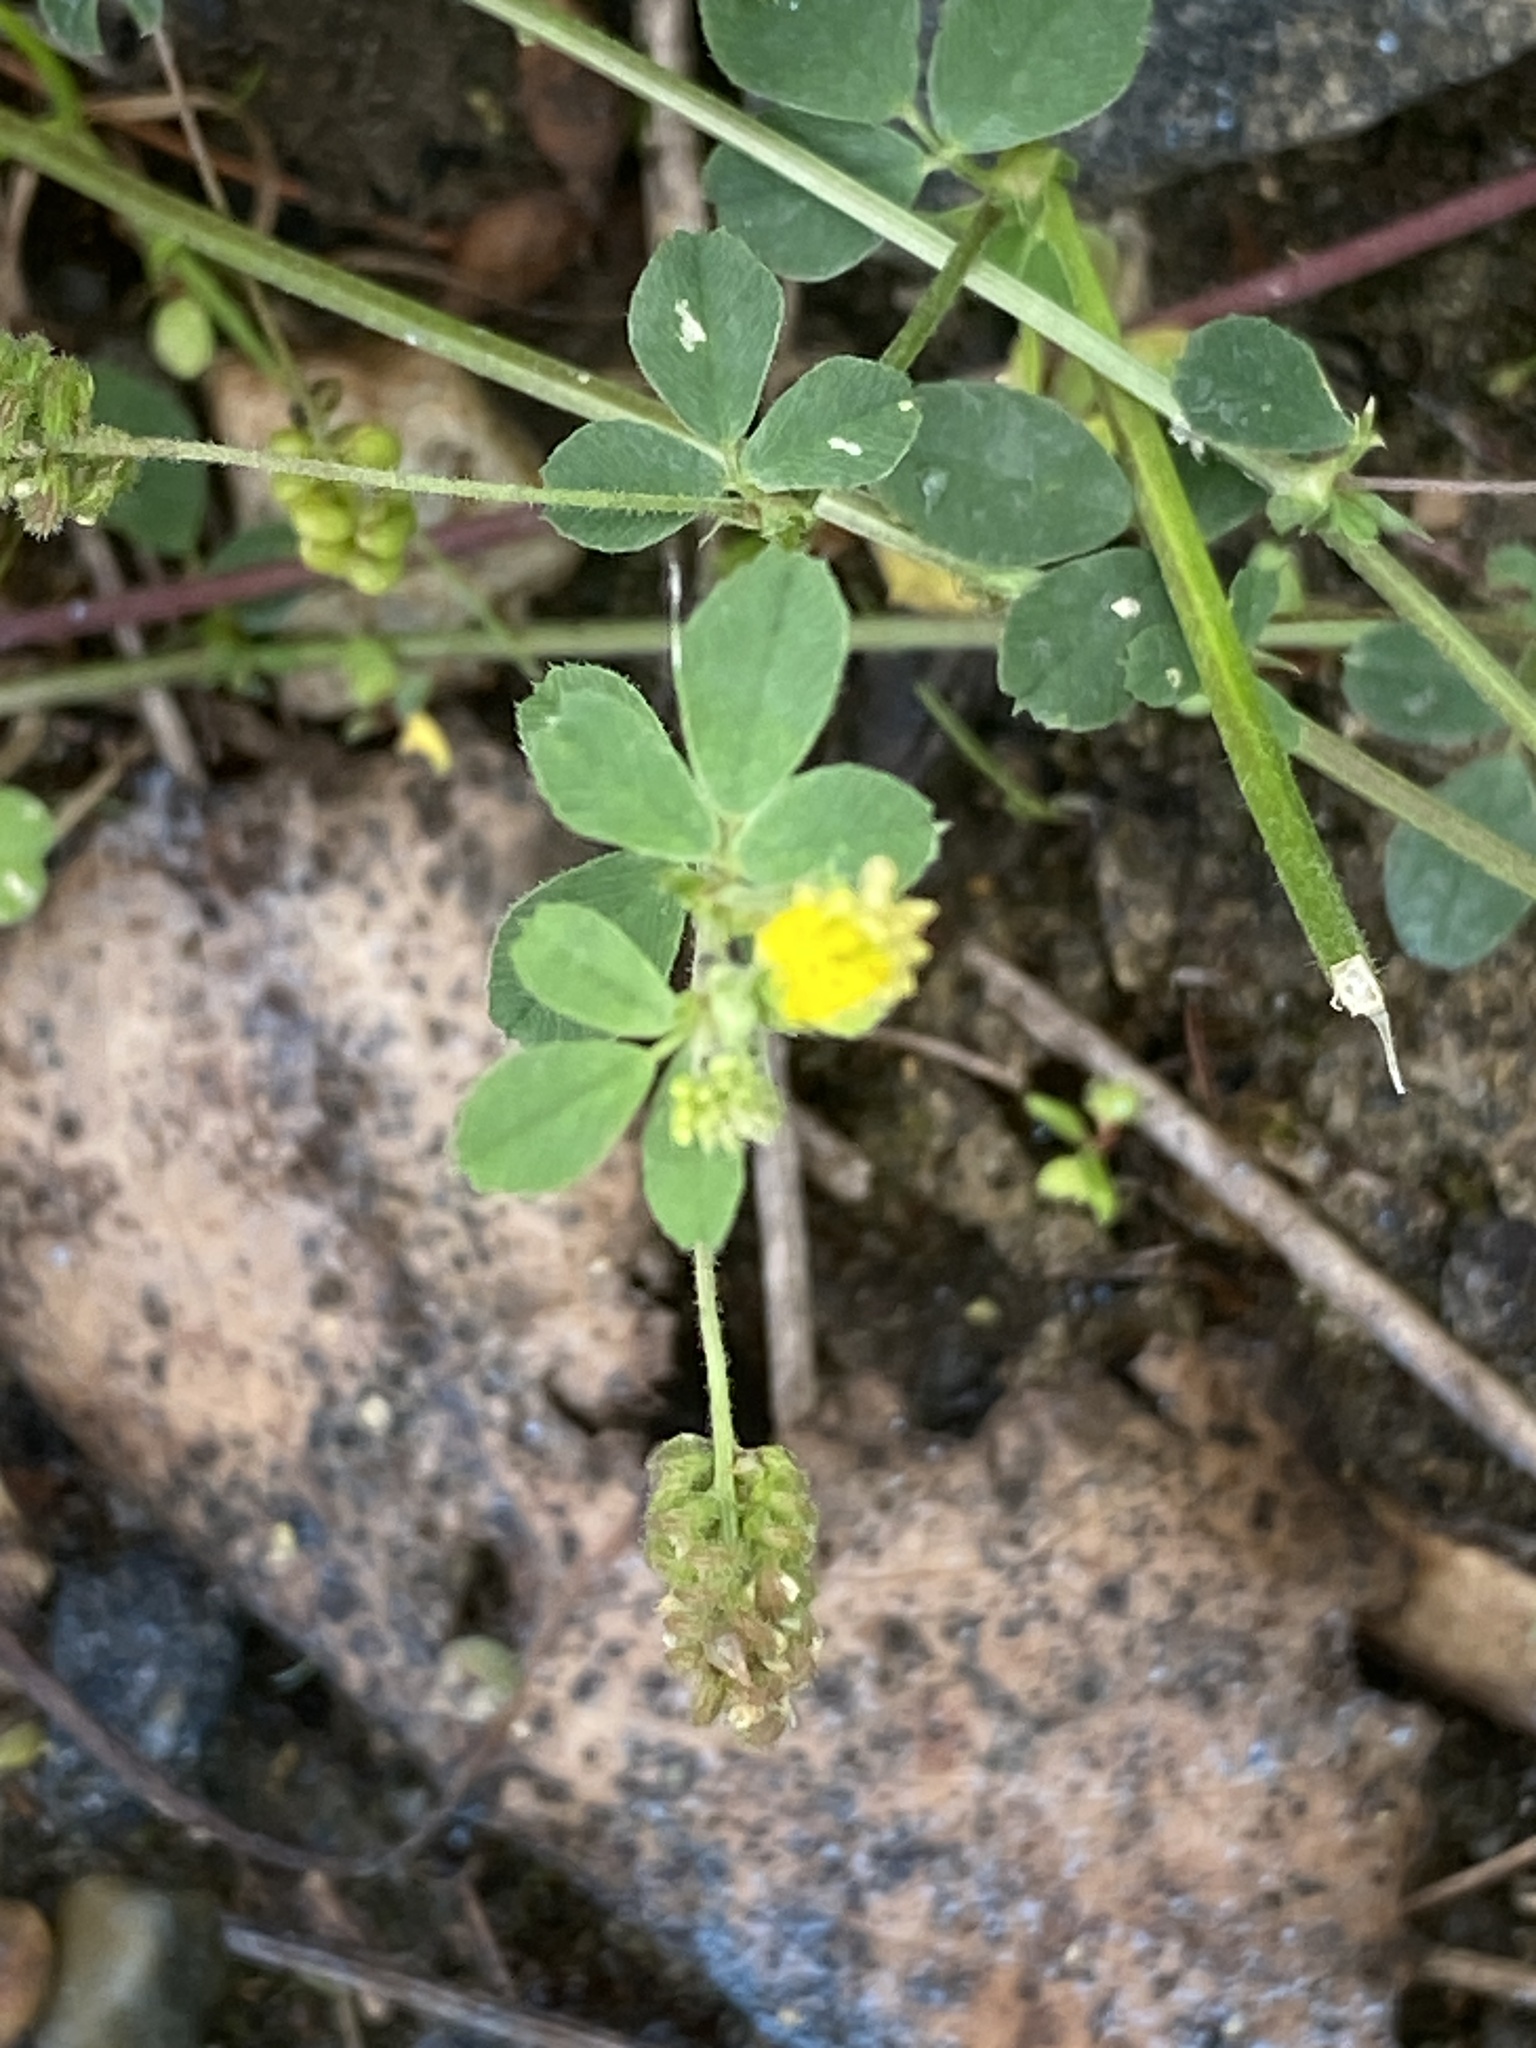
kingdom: Plantae
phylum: Tracheophyta
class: Magnoliopsida
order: Fabales
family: Fabaceae
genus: Medicago
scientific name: Medicago lupulina
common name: Black medick
